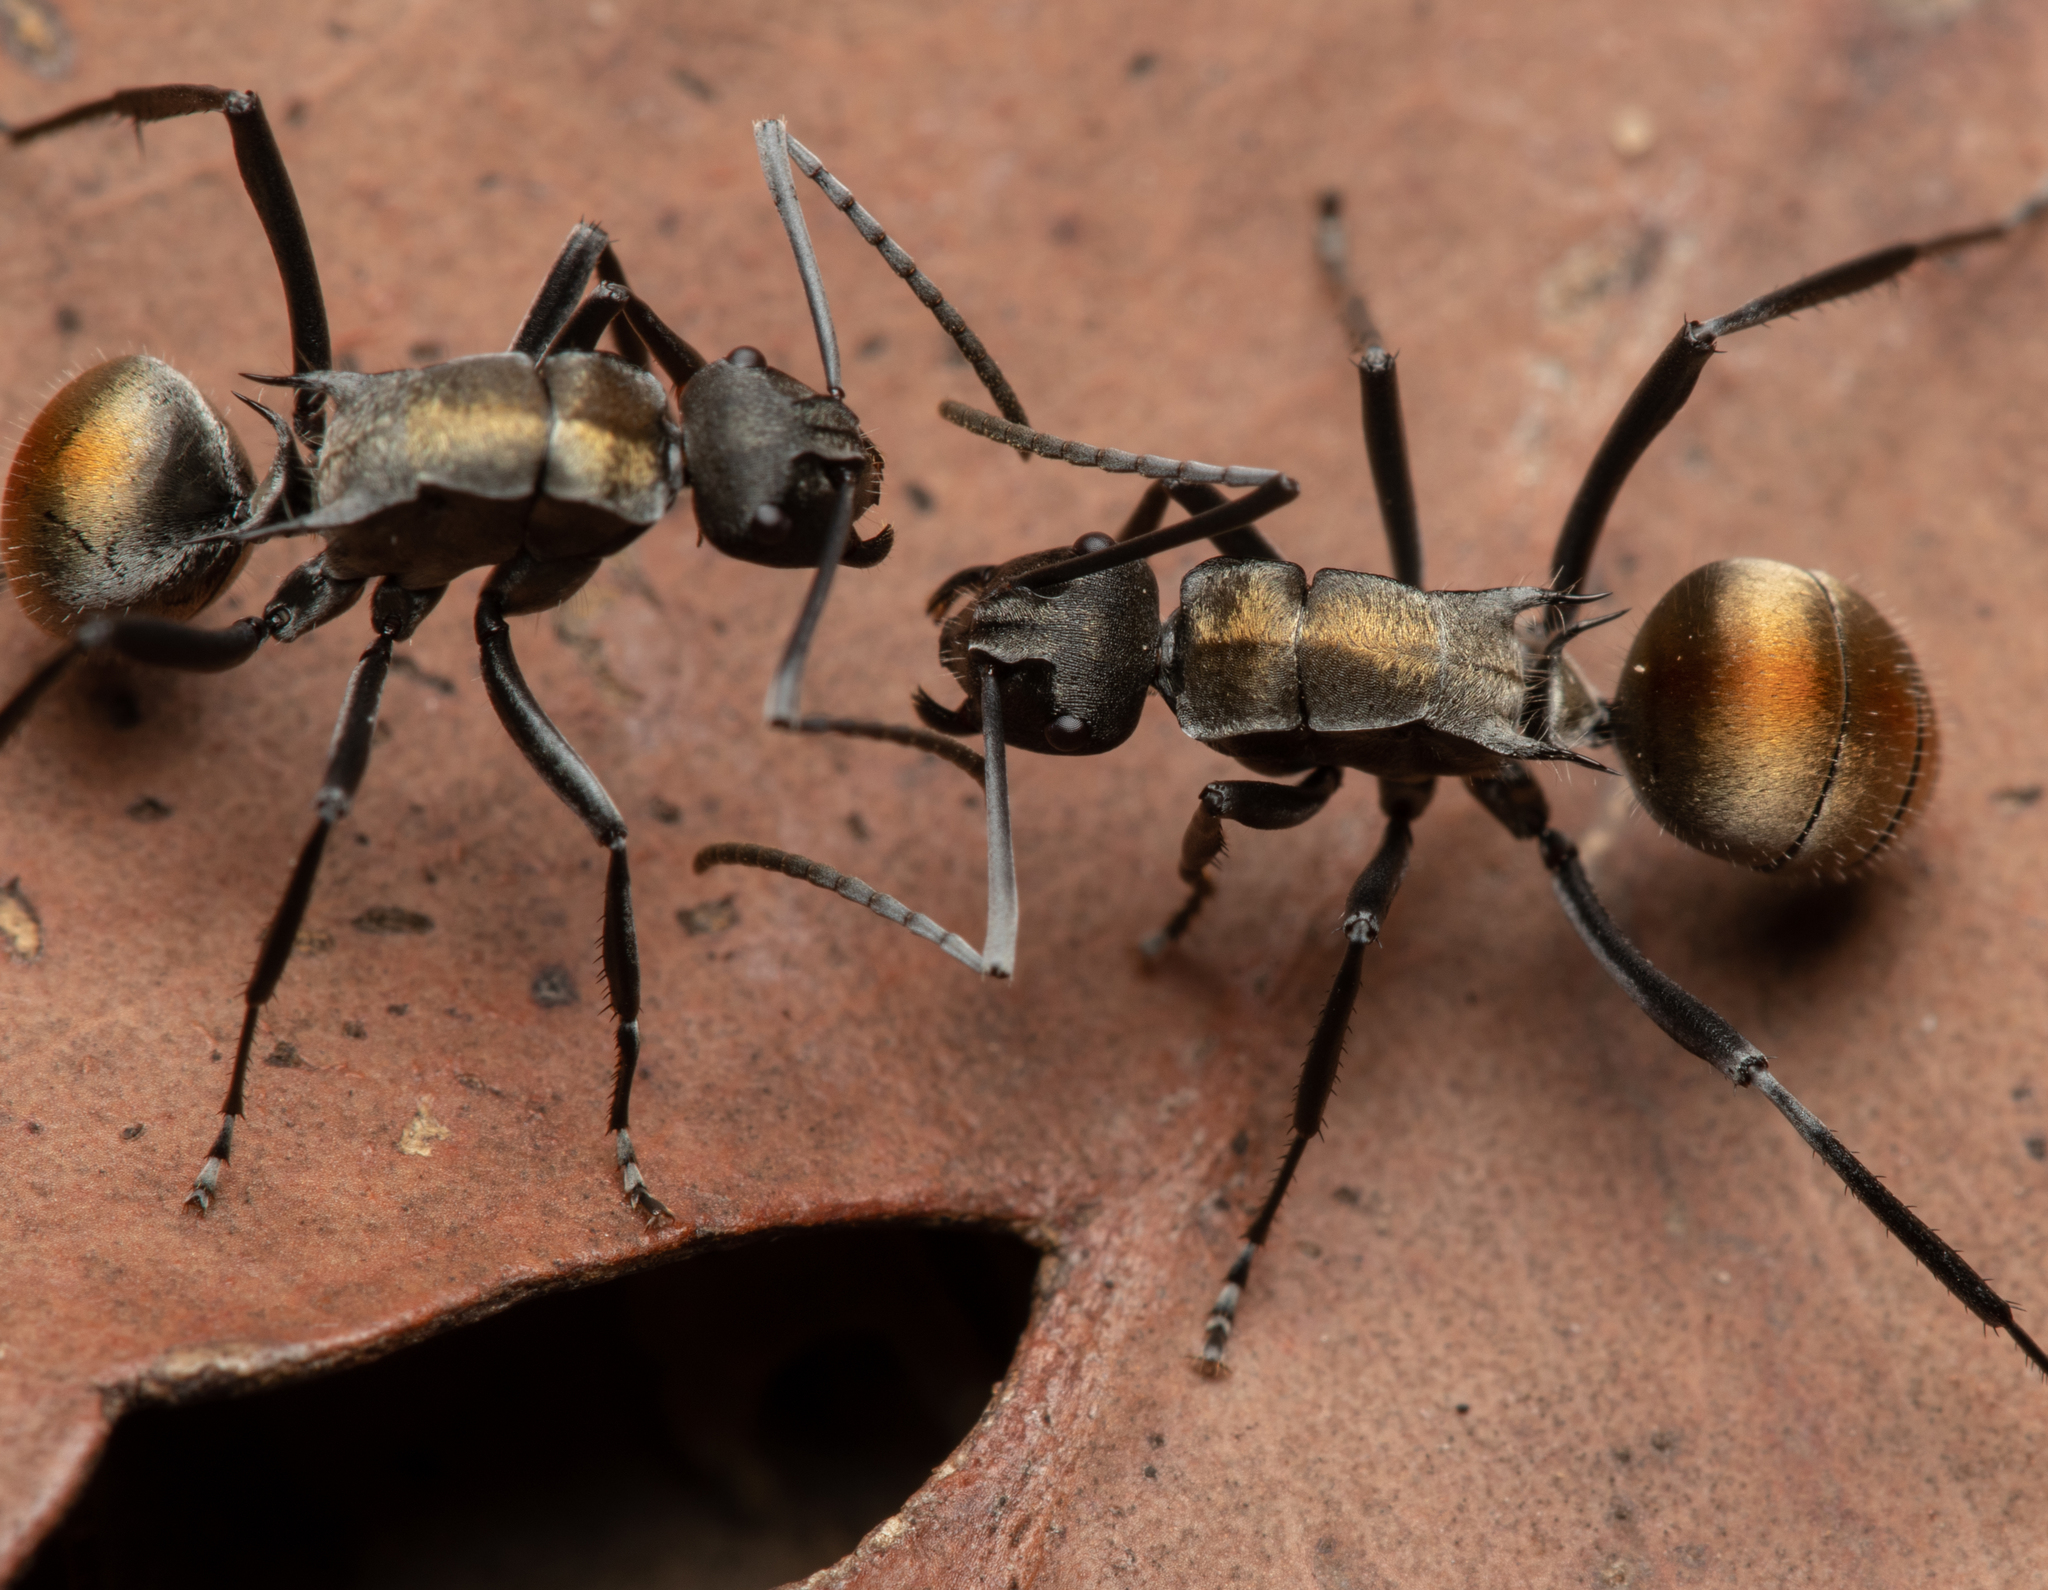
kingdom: Animalia
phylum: Arthropoda
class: Insecta
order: Hymenoptera
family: Formicidae
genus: Polyrhachis
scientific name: Polyrhachis ammon
